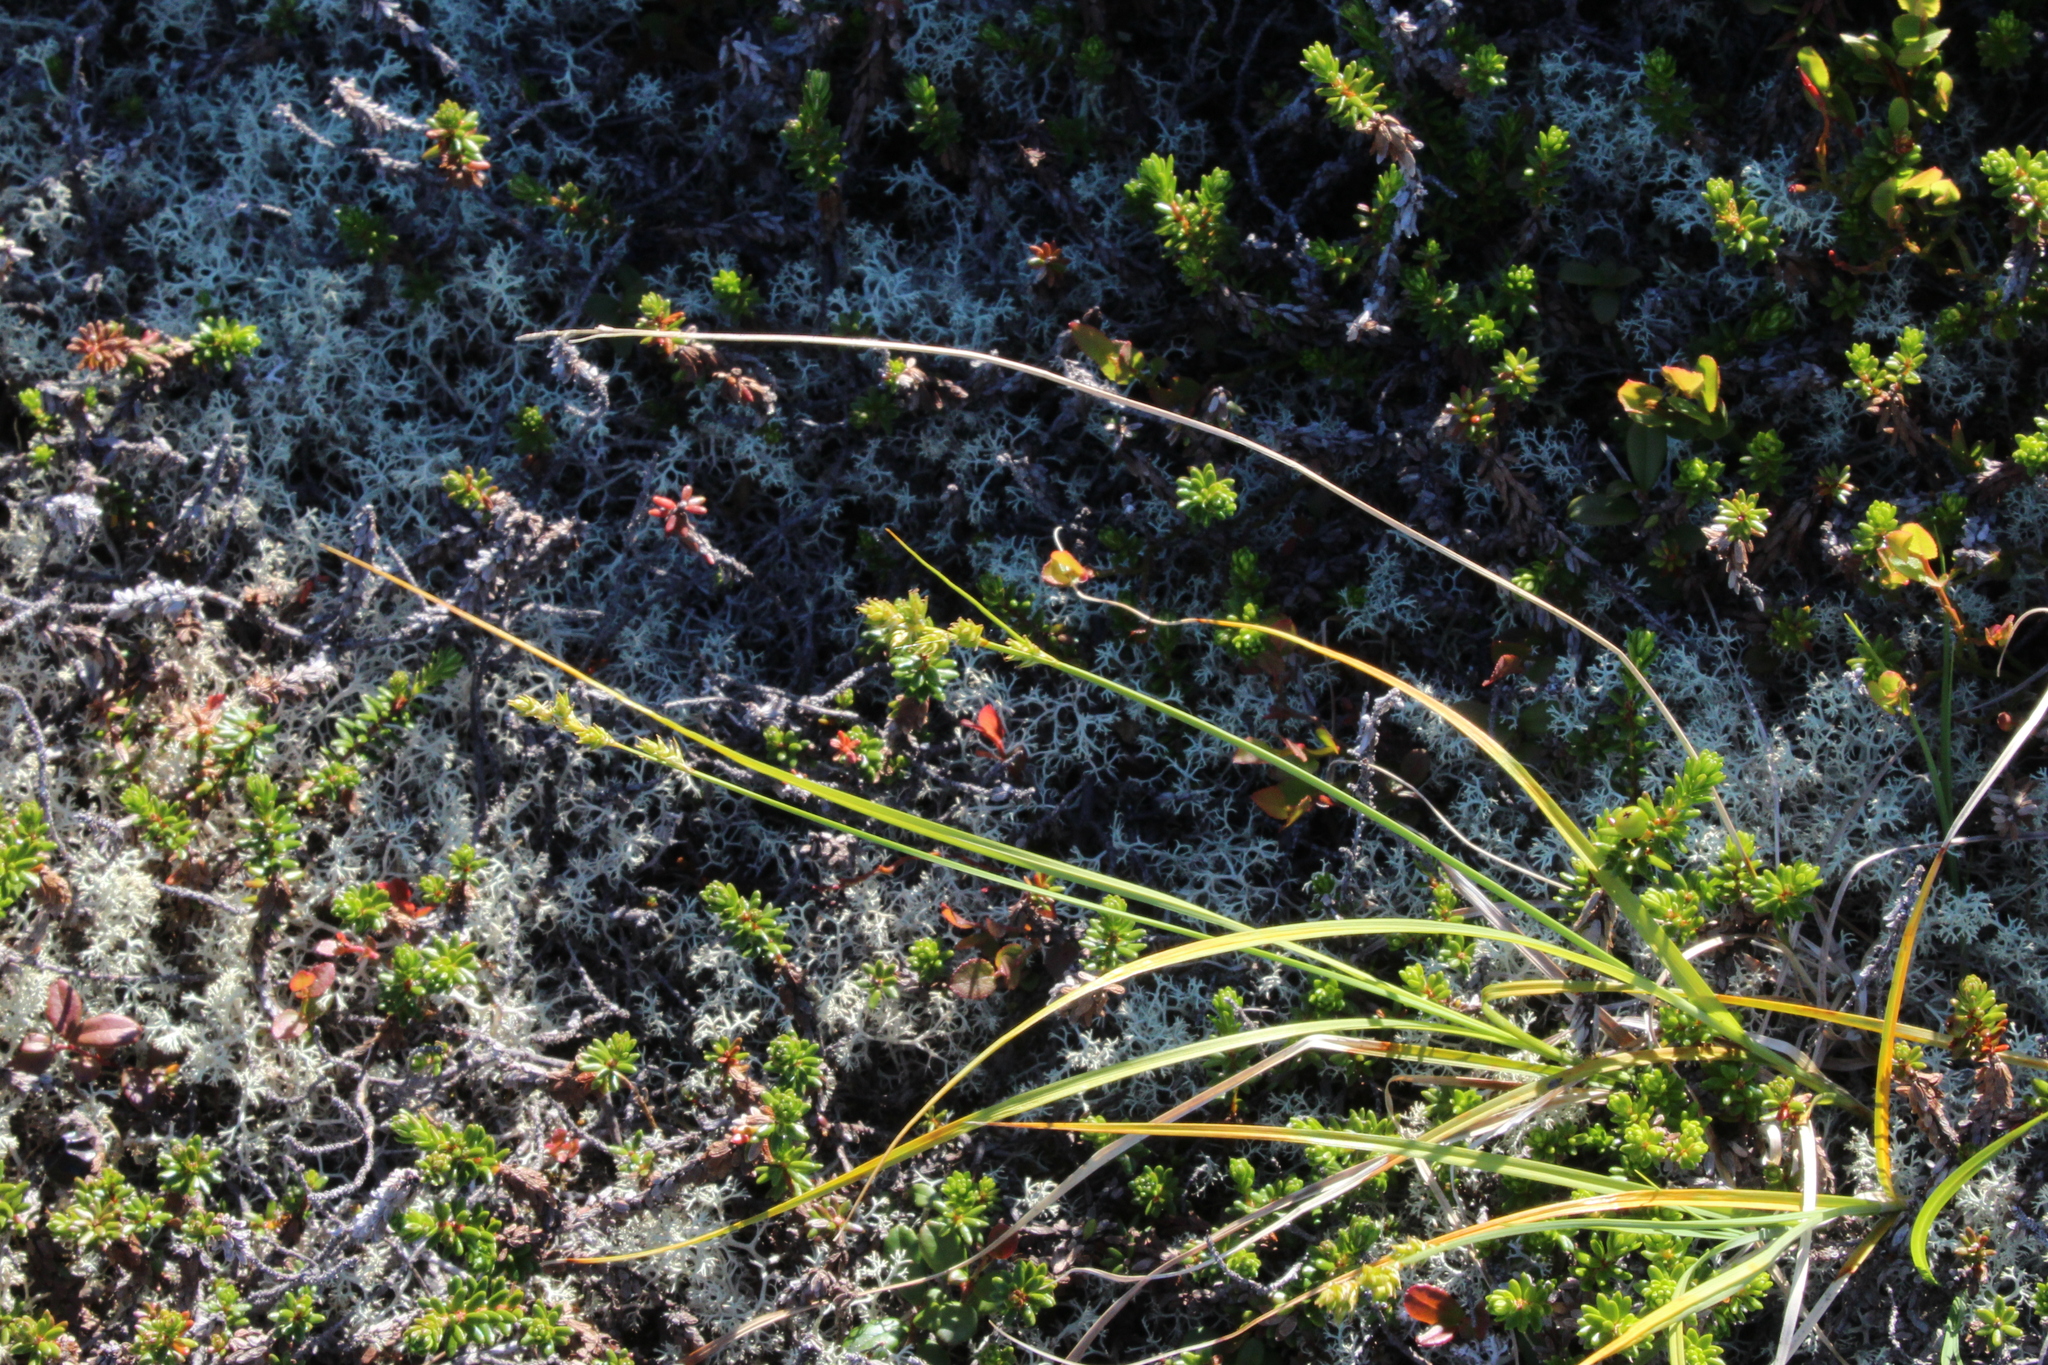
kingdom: Plantae
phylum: Tracheophyta
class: Liliopsida
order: Poales
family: Cyperaceae
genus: Carex
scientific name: Carex canescens
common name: White sedge
